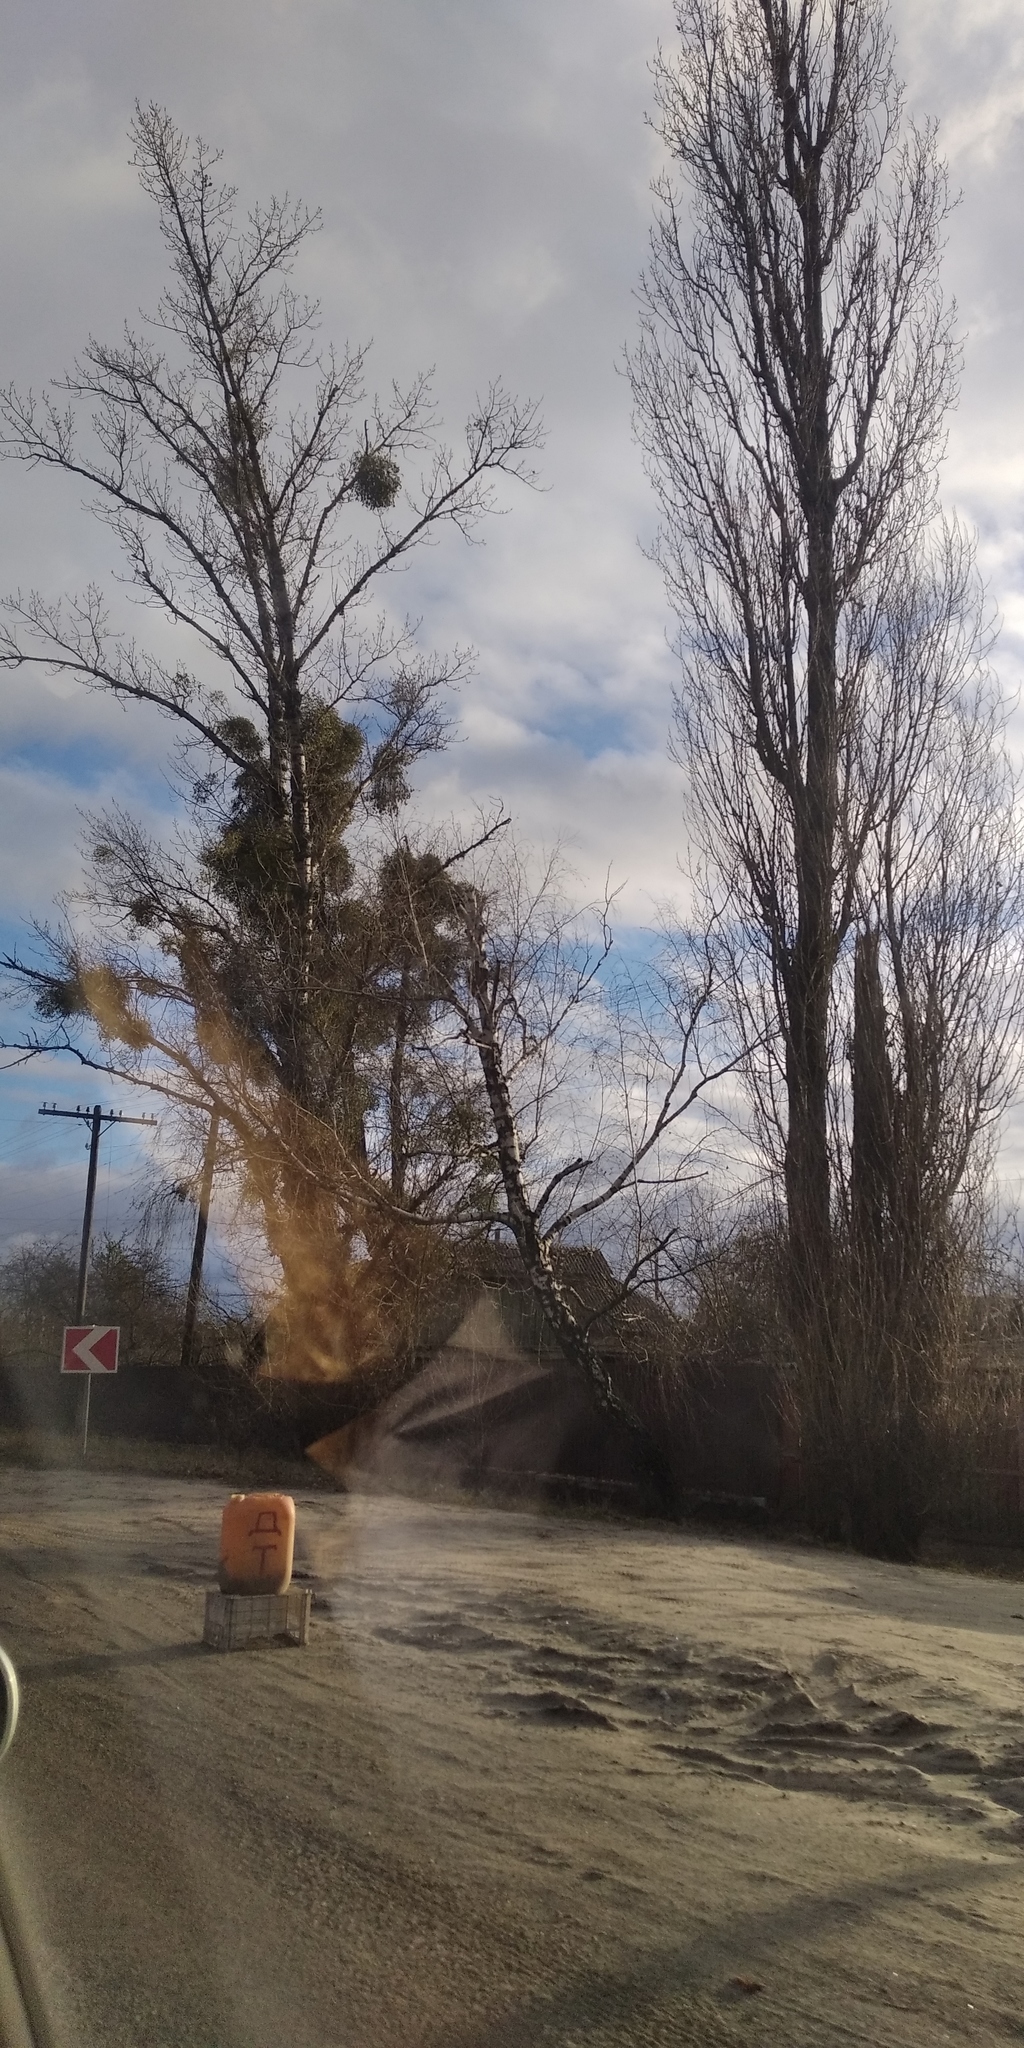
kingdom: Plantae
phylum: Tracheophyta
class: Magnoliopsida
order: Santalales
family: Viscaceae
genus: Viscum
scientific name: Viscum album
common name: Mistletoe
